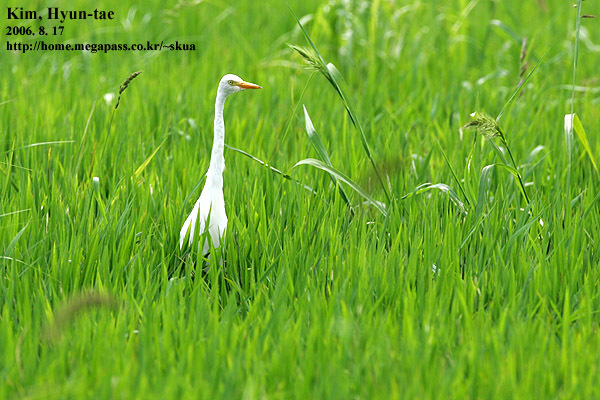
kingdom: Animalia
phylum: Chordata
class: Aves
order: Pelecaniformes
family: Ardeidae
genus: Egretta
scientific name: Egretta intermedia
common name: Intermediate egret
